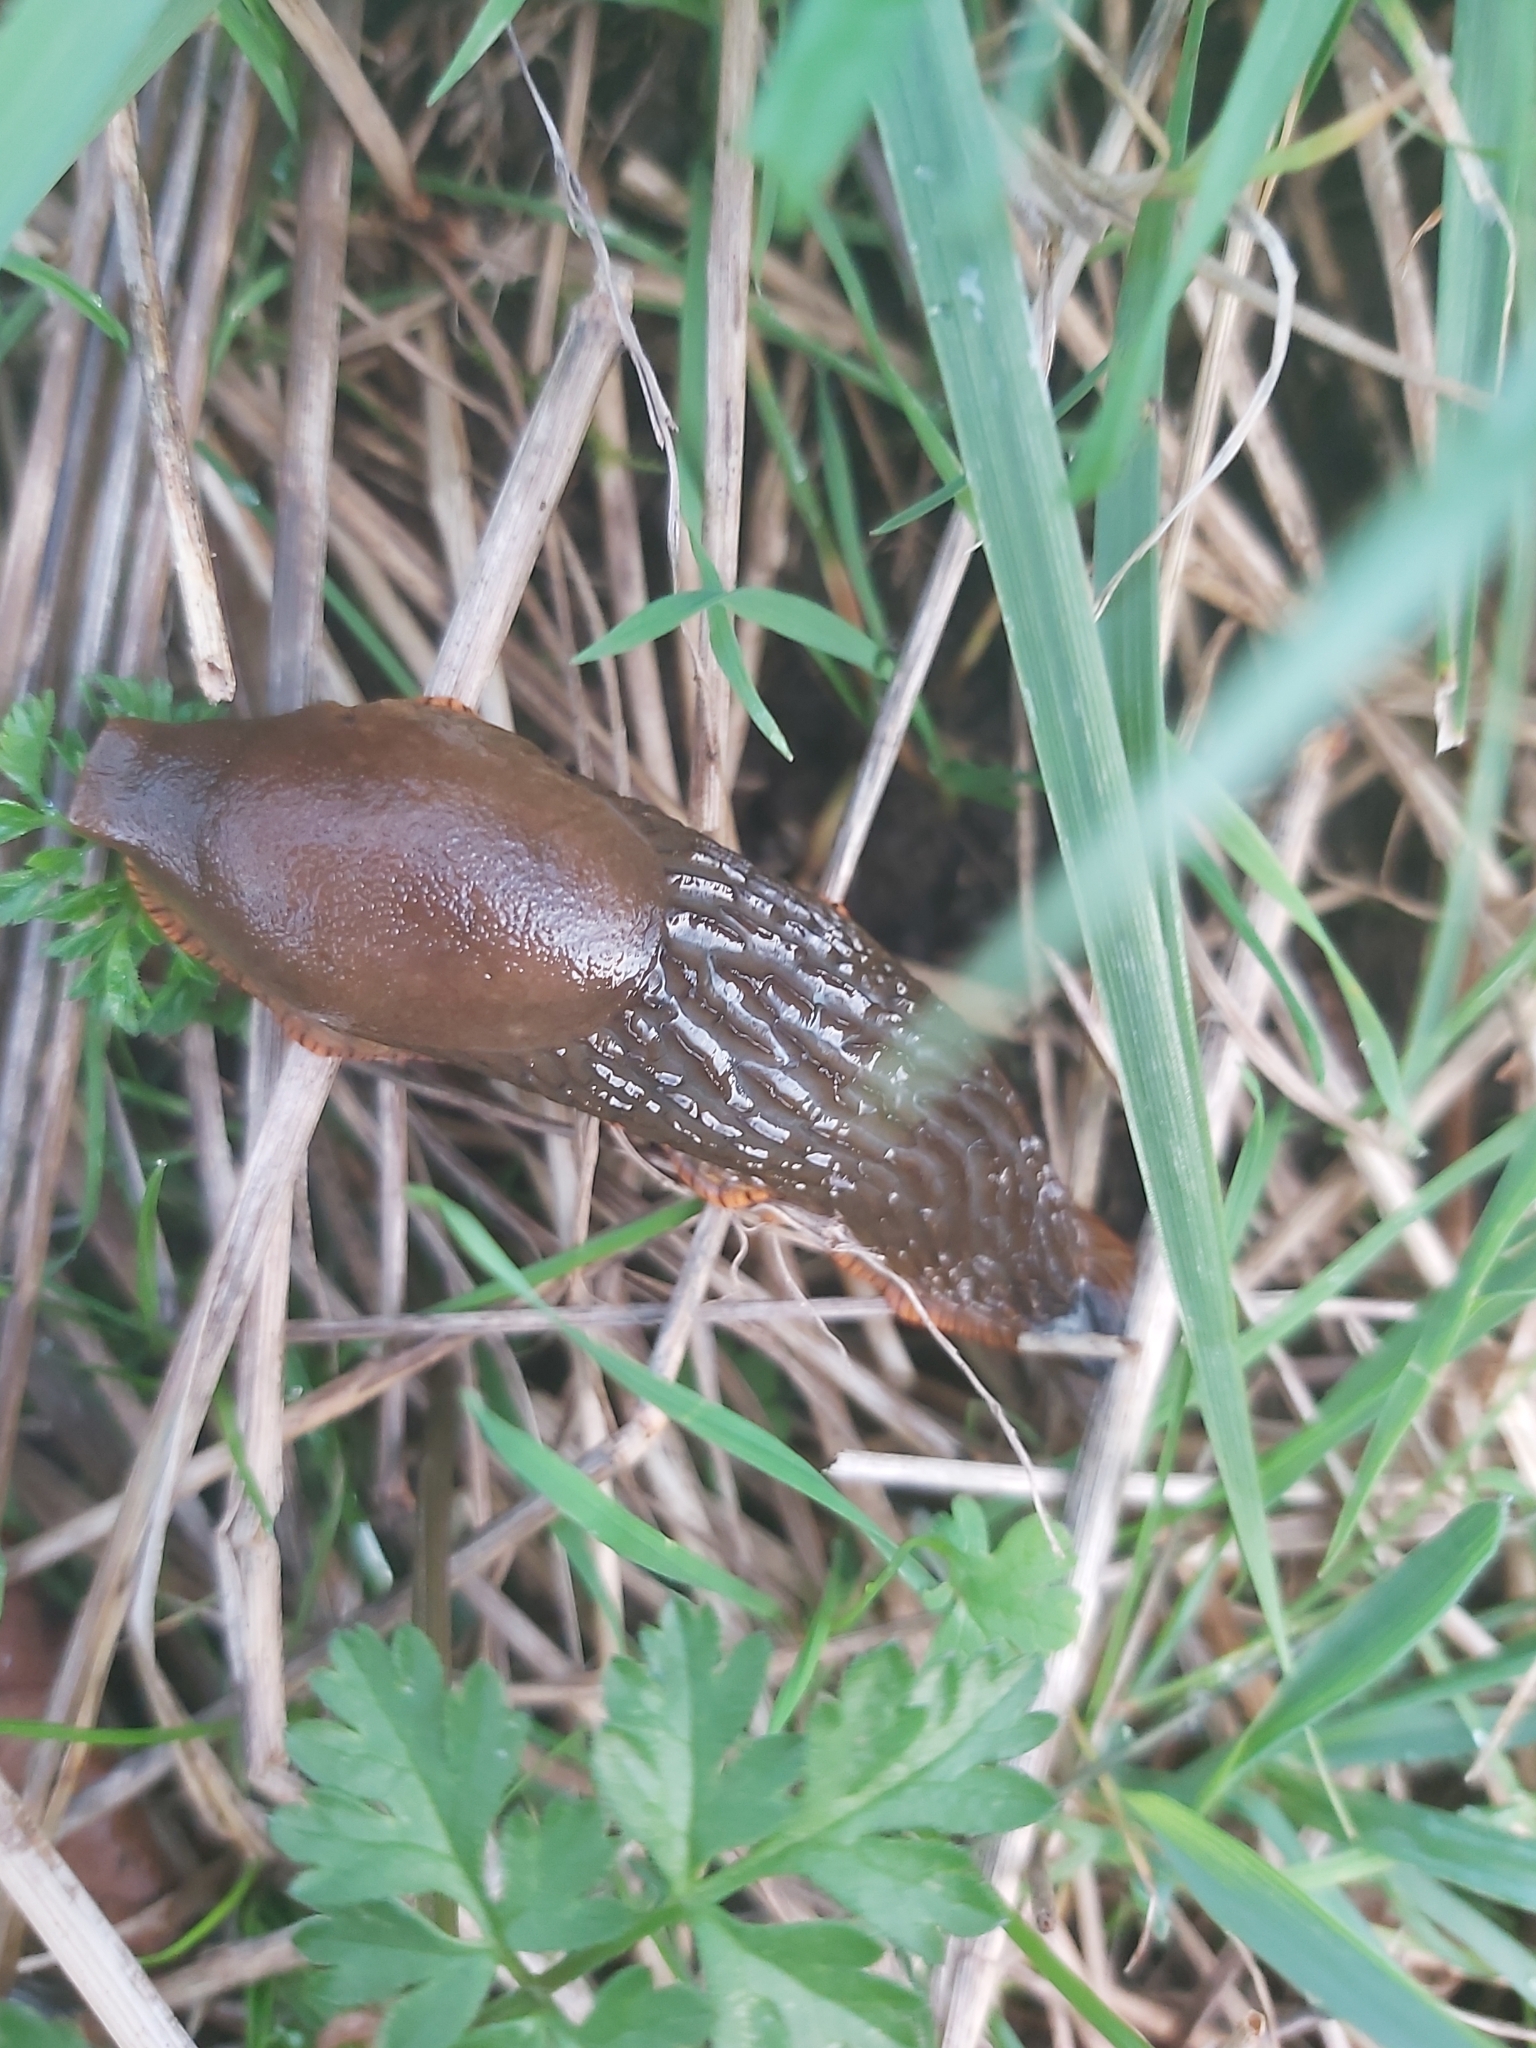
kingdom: Animalia
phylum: Mollusca
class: Gastropoda
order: Stylommatophora
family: Arionidae
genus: Arion
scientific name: Arion vulgaris
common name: Lusitanian slug
